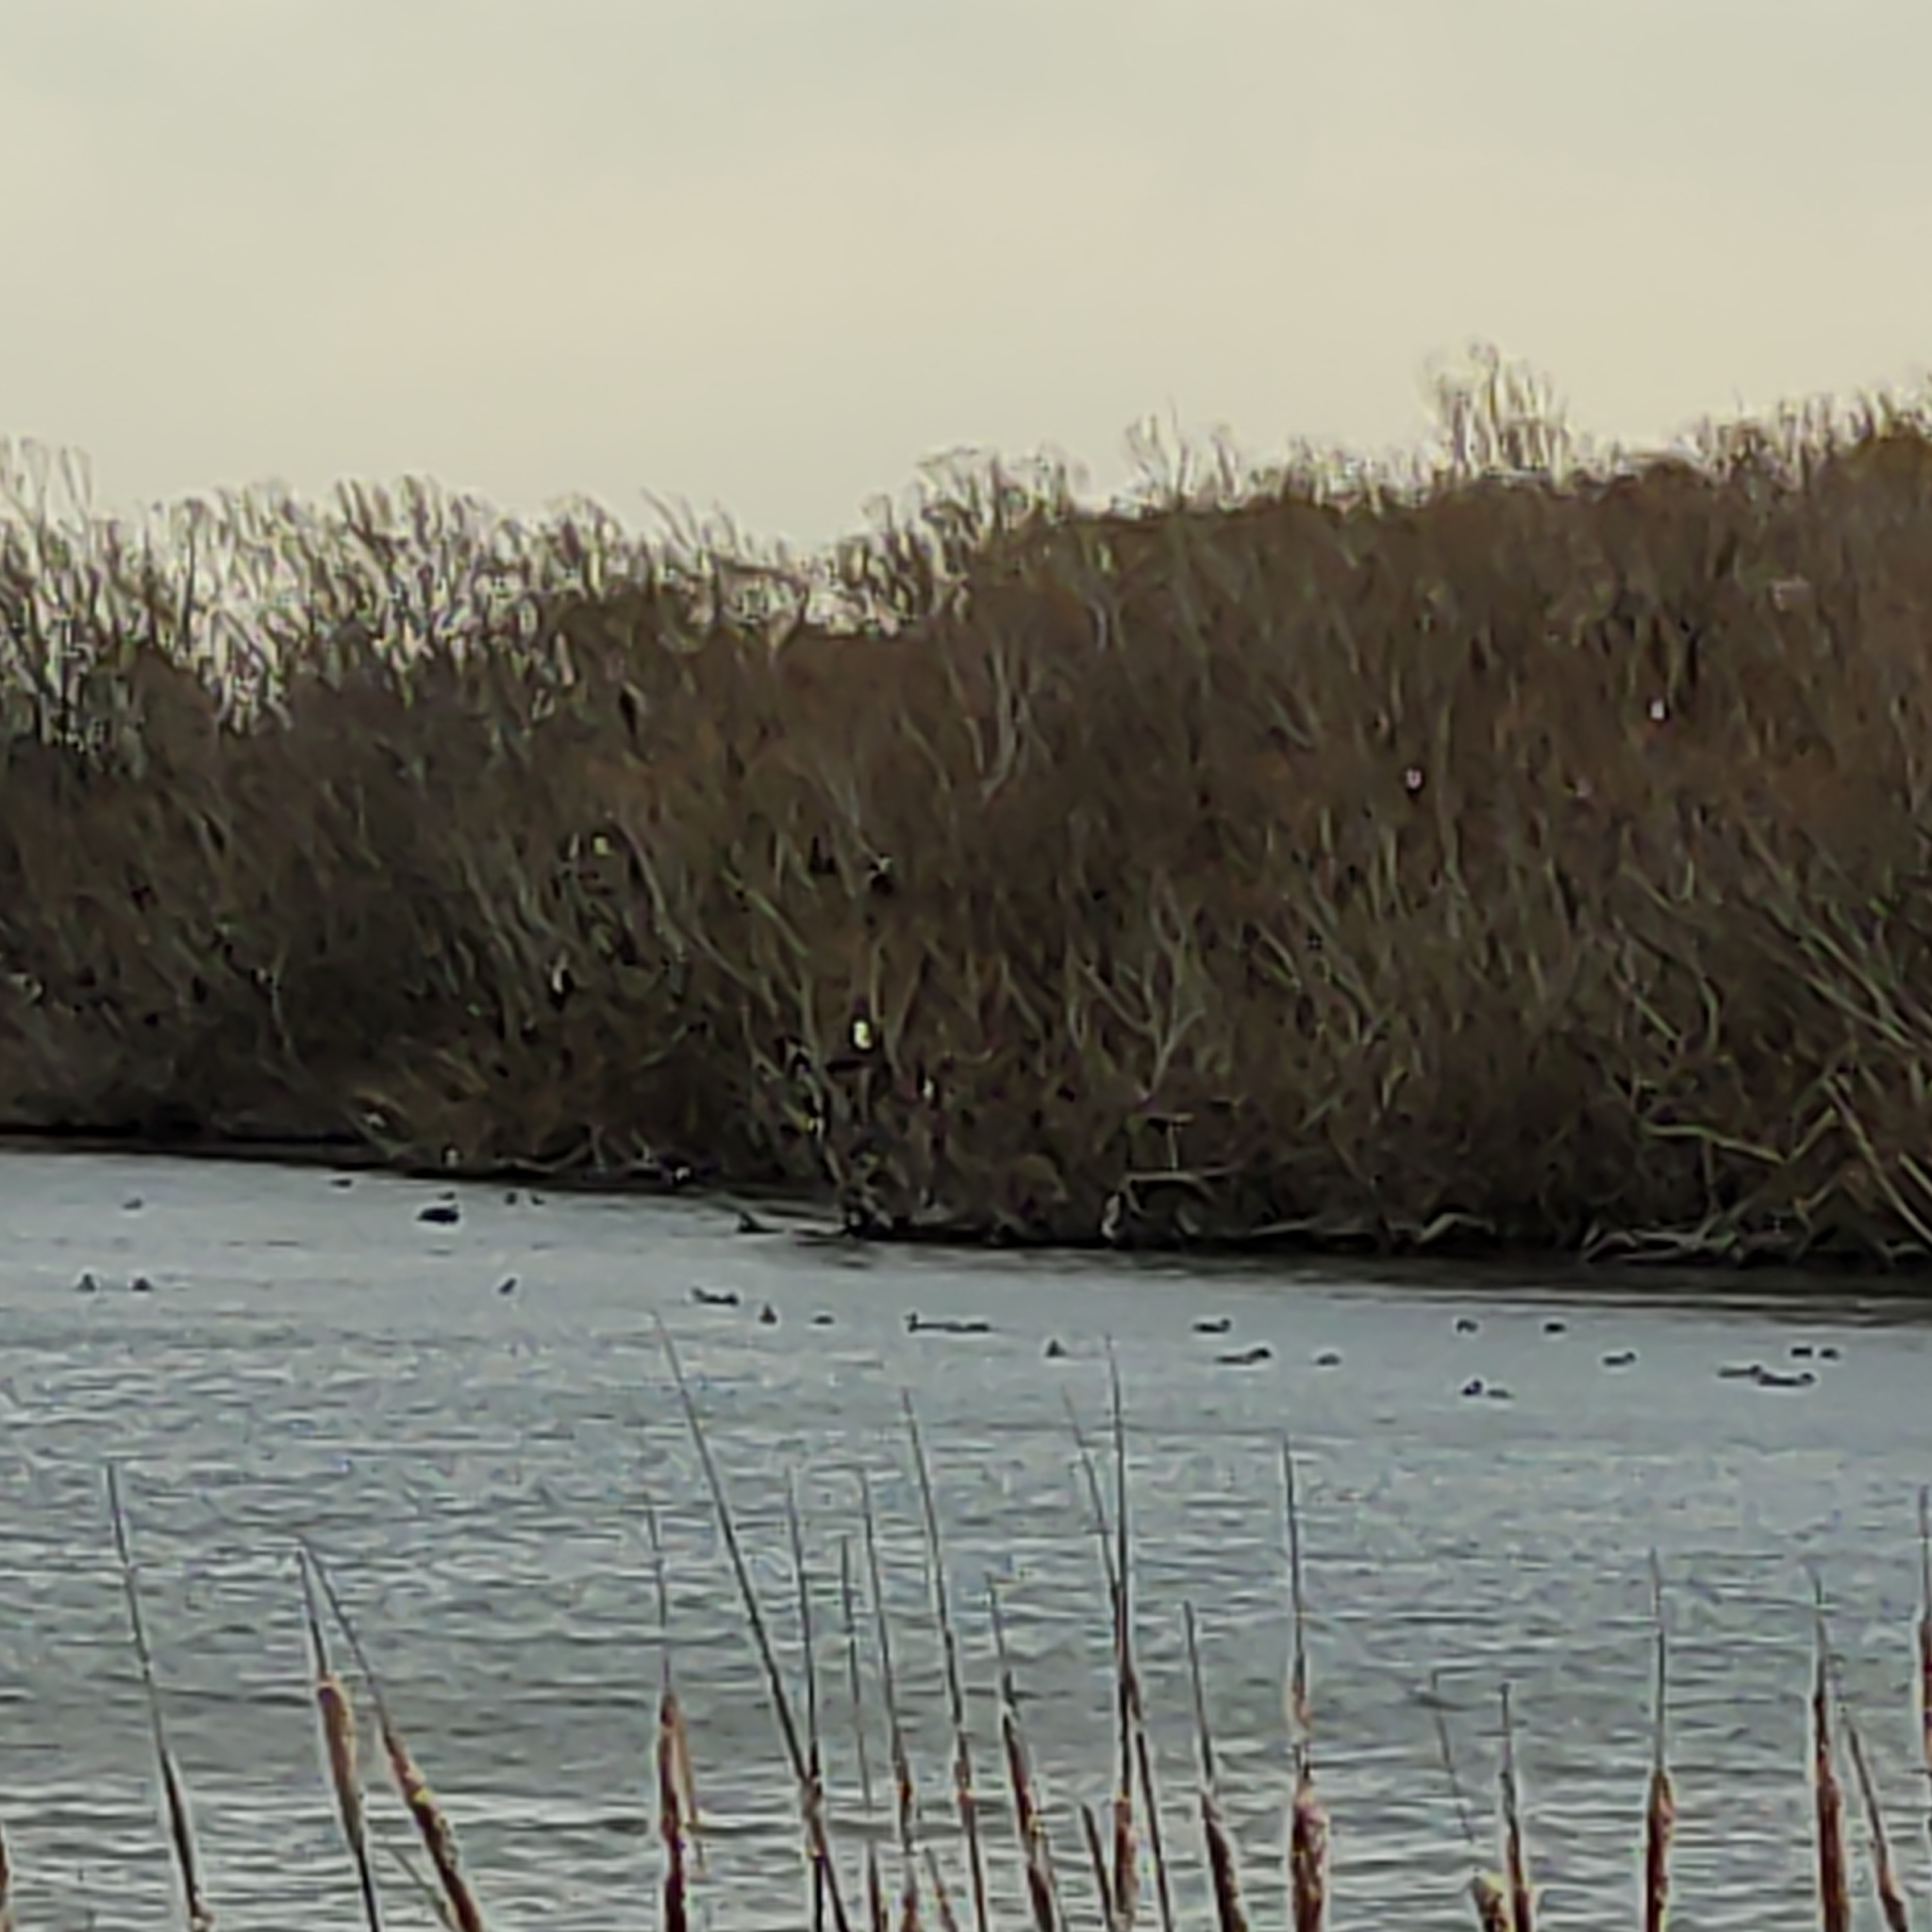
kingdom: Animalia
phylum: Chordata
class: Aves
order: Suliformes
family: Phalacrocoracidae
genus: Phalacrocorax
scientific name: Phalacrocorax varius
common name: Pied cormorant
